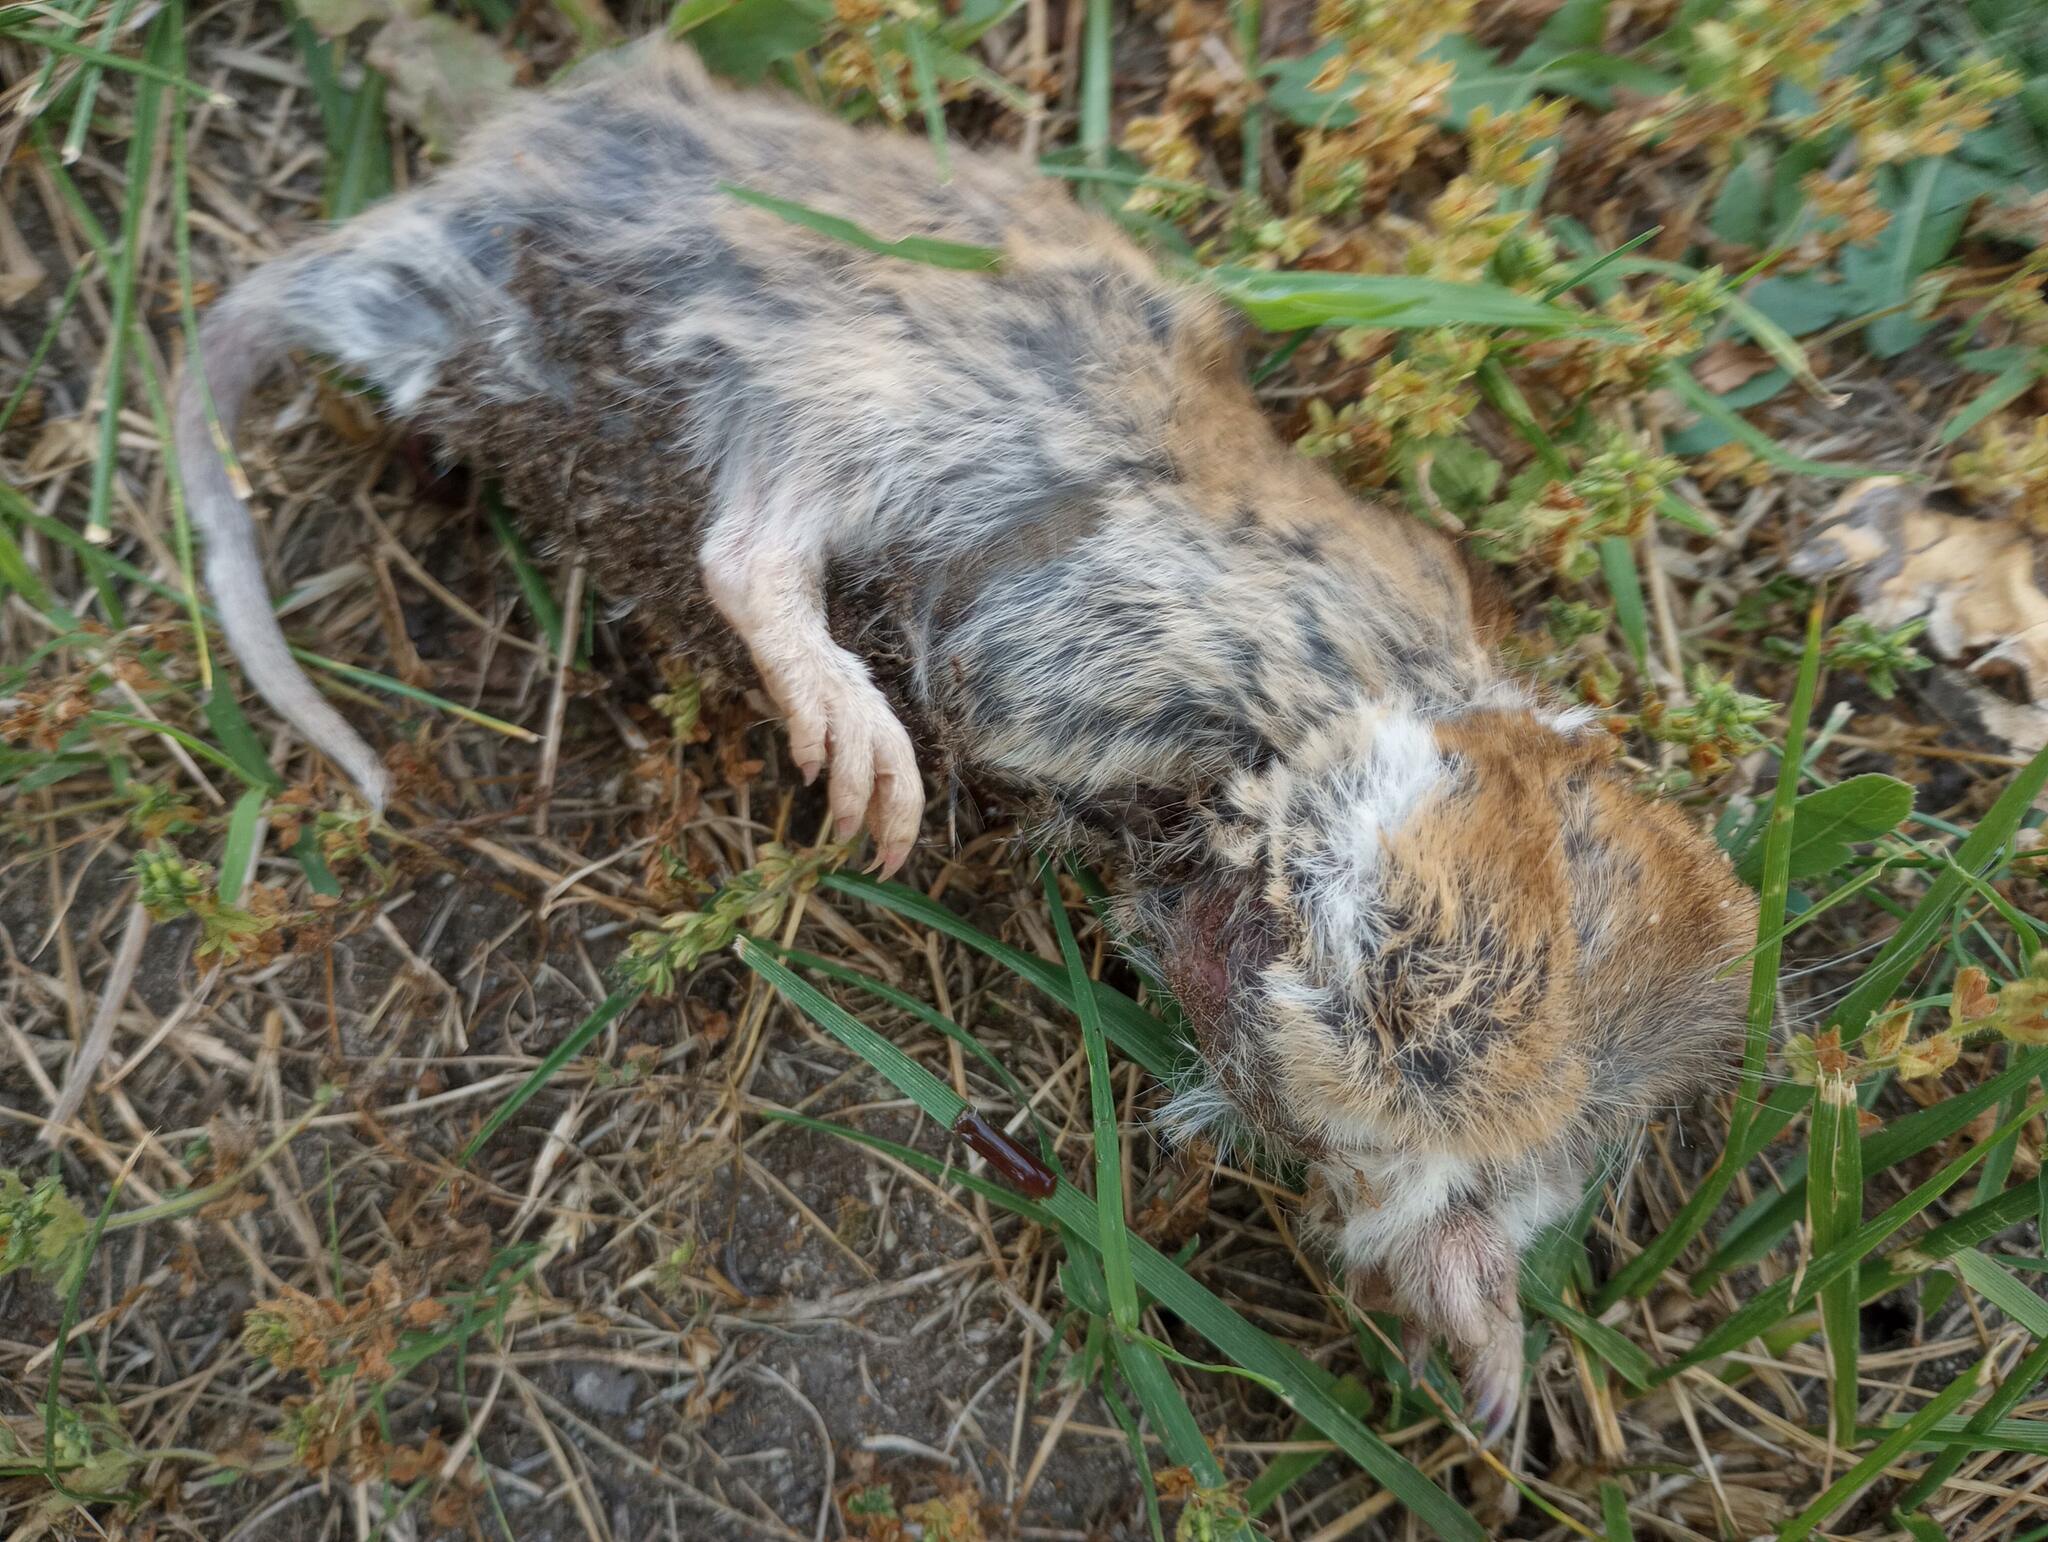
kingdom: Animalia
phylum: Chordata
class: Mammalia
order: Rodentia
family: Geomyidae
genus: Thomomys
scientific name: Thomomys bottae
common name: Botta's pocket gopher
